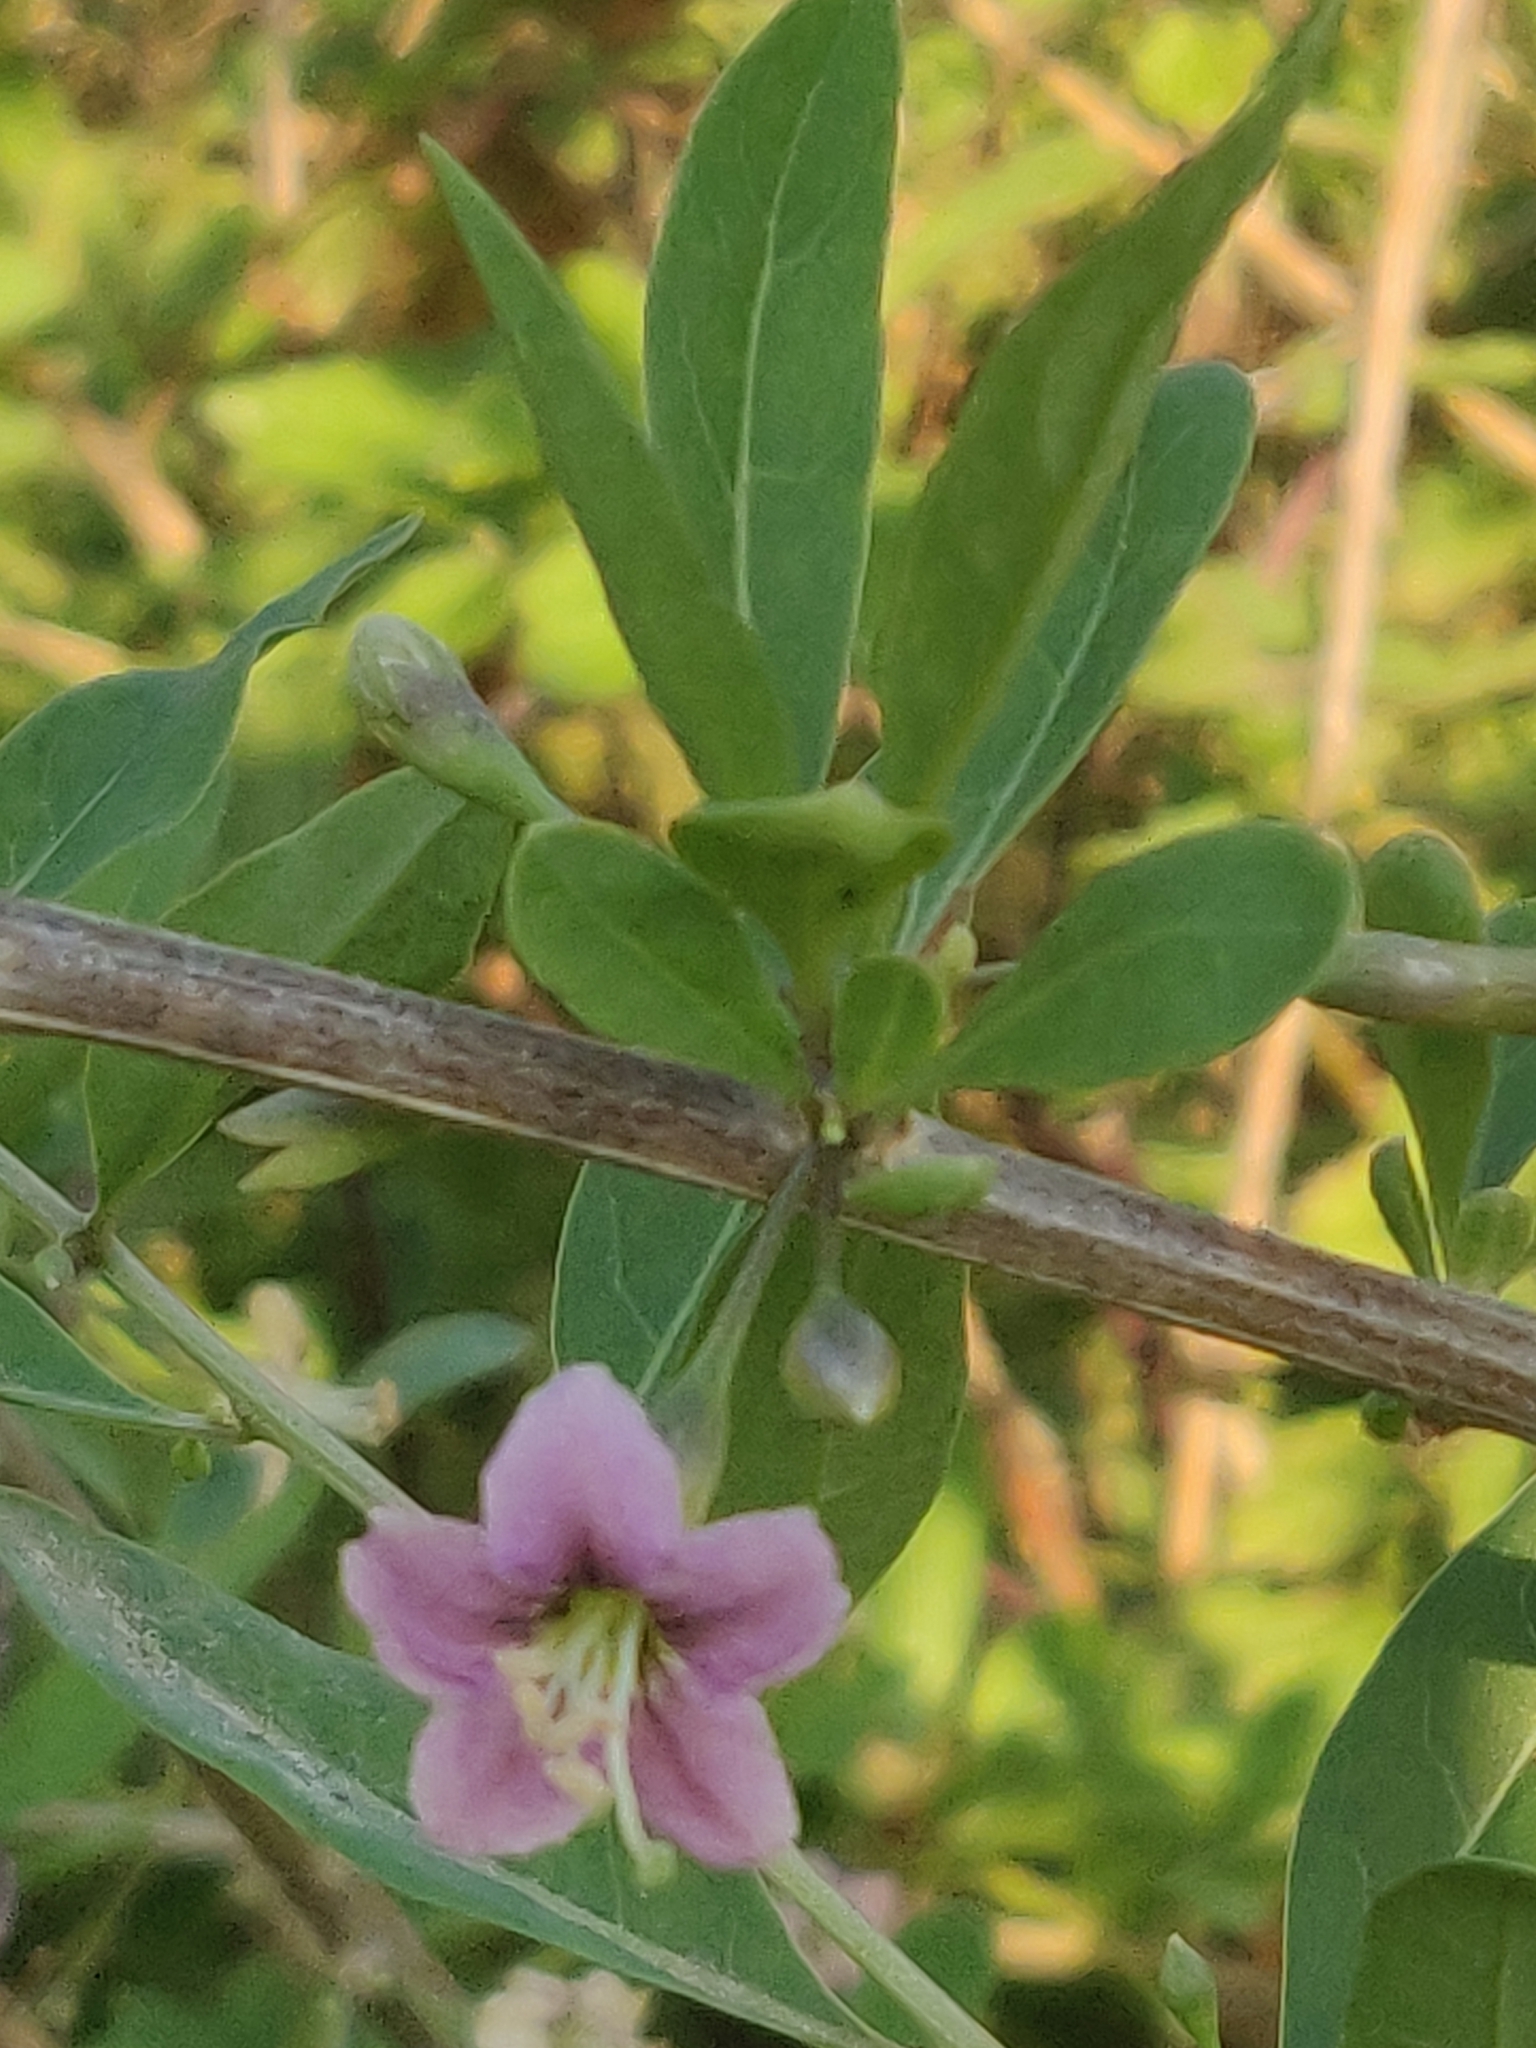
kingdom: Plantae
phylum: Tracheophyta
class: Magnoliopsida
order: Solanales
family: Solanaceae
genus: Lycium
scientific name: Lycium barbarum
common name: Duke of argyll's teaplant
